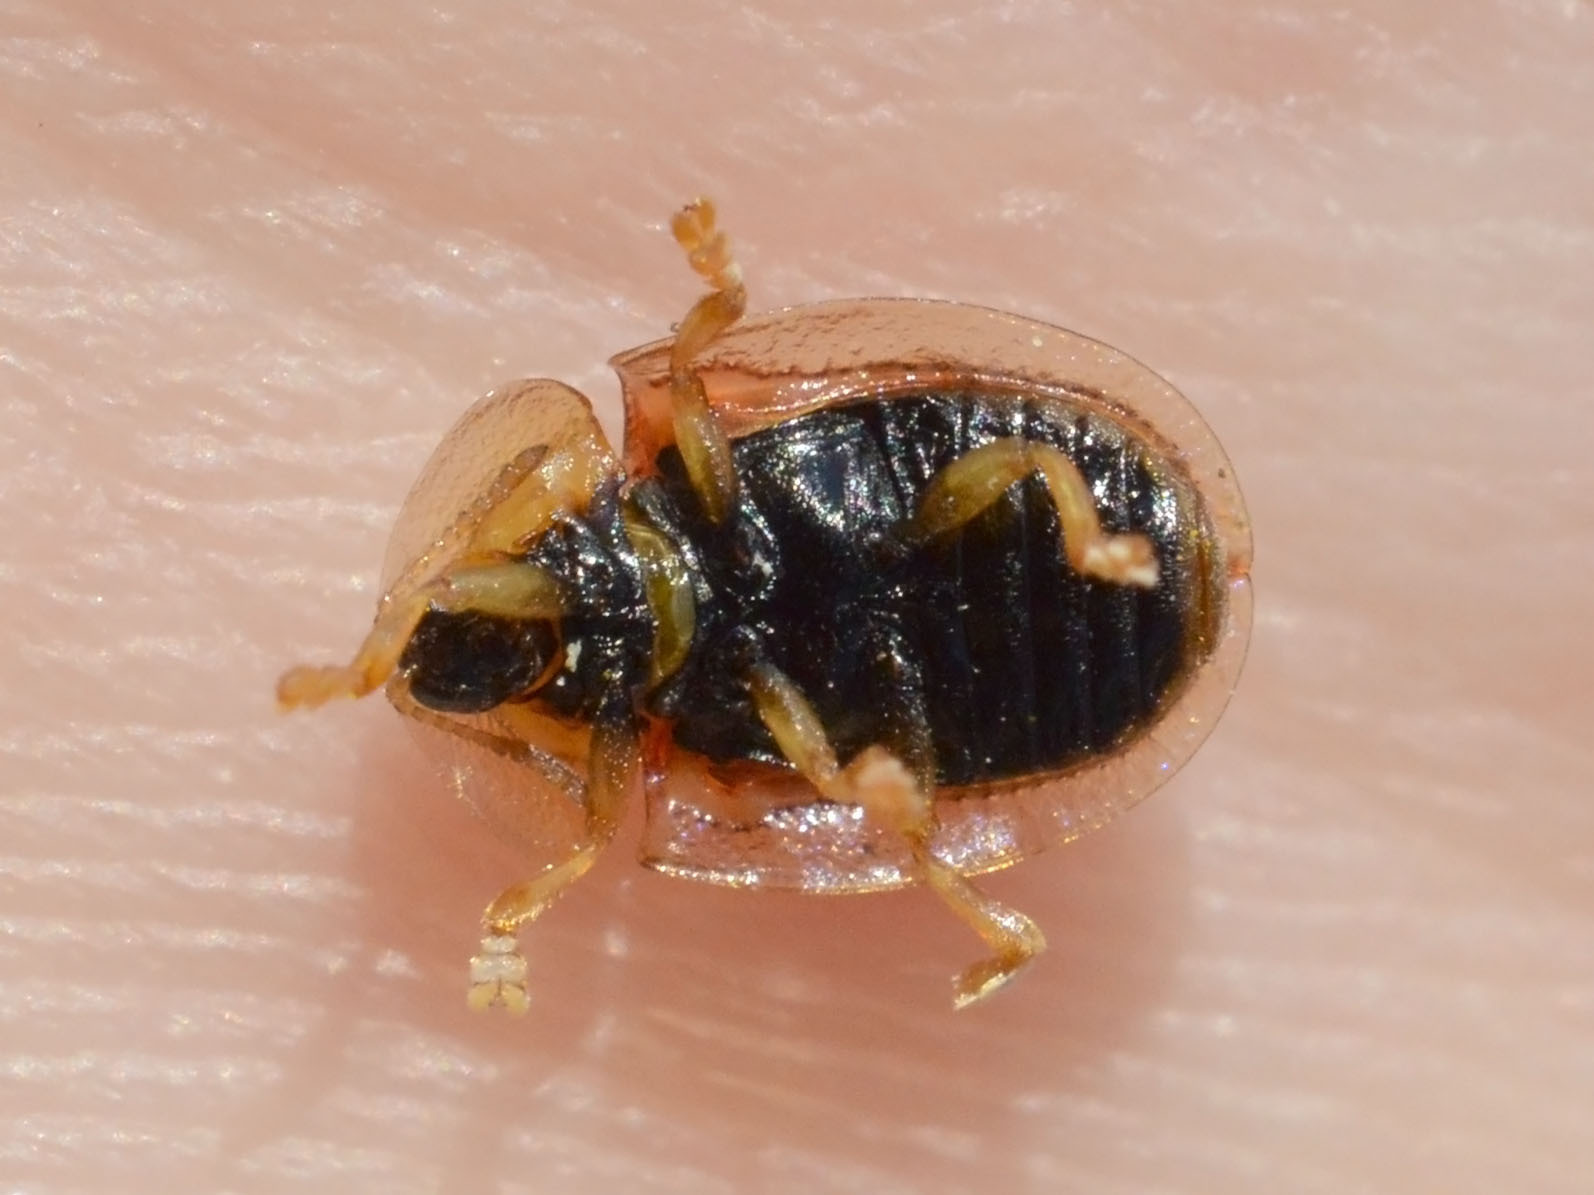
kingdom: Animalia
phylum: Arthropoda
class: Insecta
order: Coleoptera
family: Chrysomelidae
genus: Cassida
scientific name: Cassida azurea
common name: Rainbow tortoise beetle
